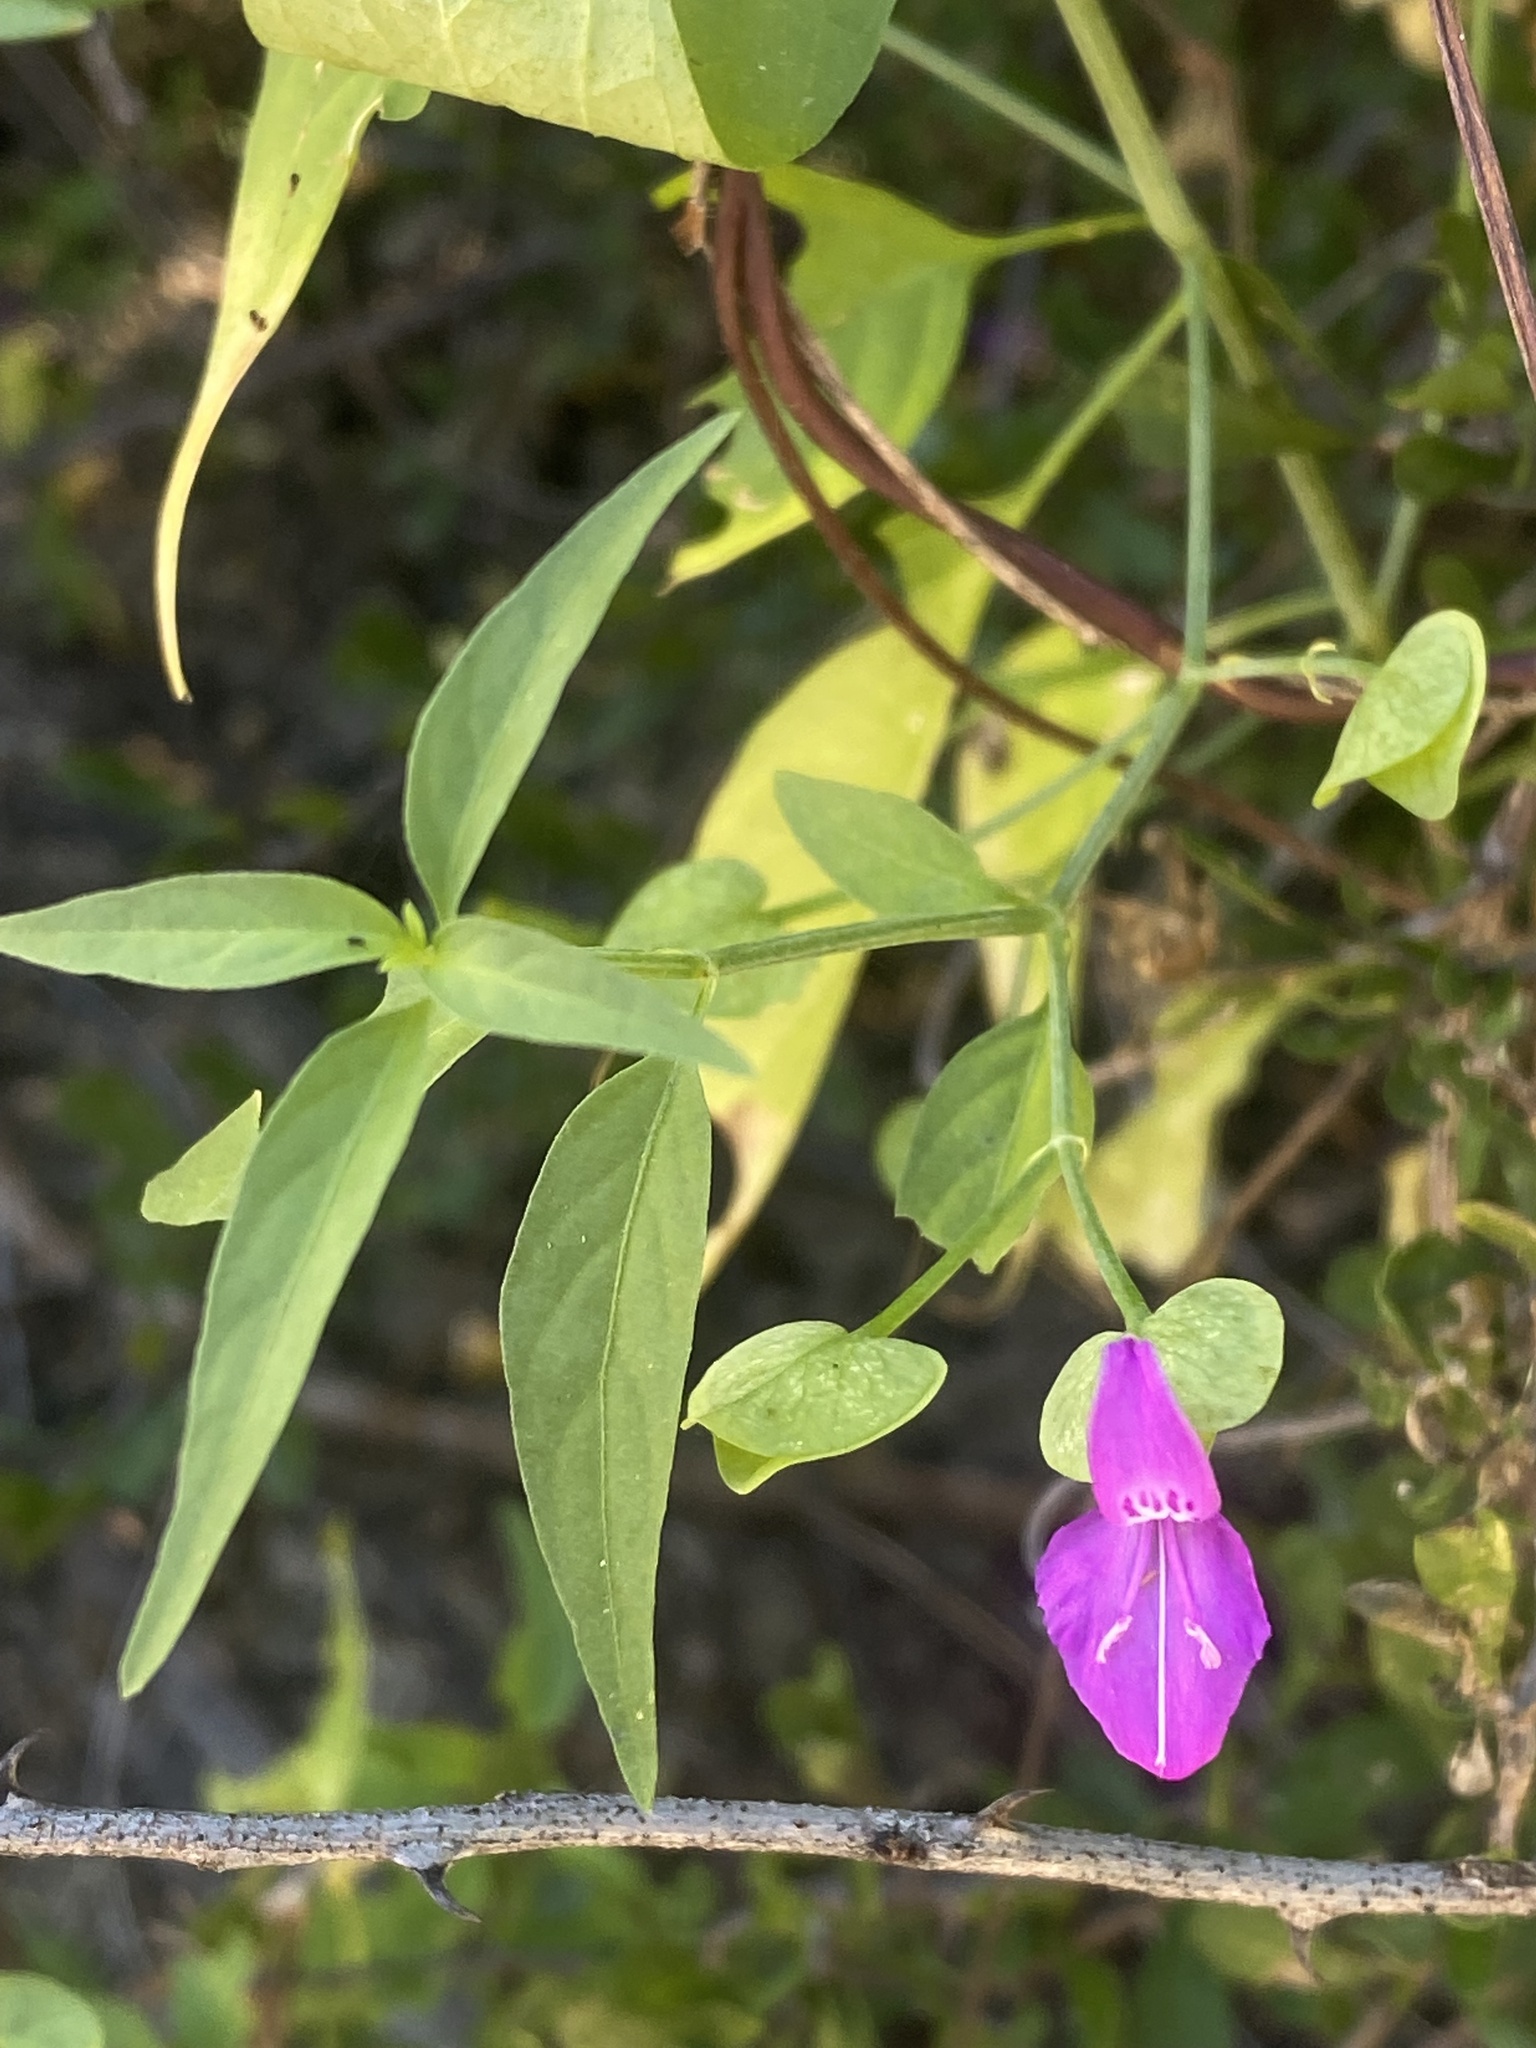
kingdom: Plantae
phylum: Tracheophyta
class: Magnoliopsida
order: Lamiales
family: Acanthaceae
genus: Dicliptera
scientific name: Dicliptera resupinata
